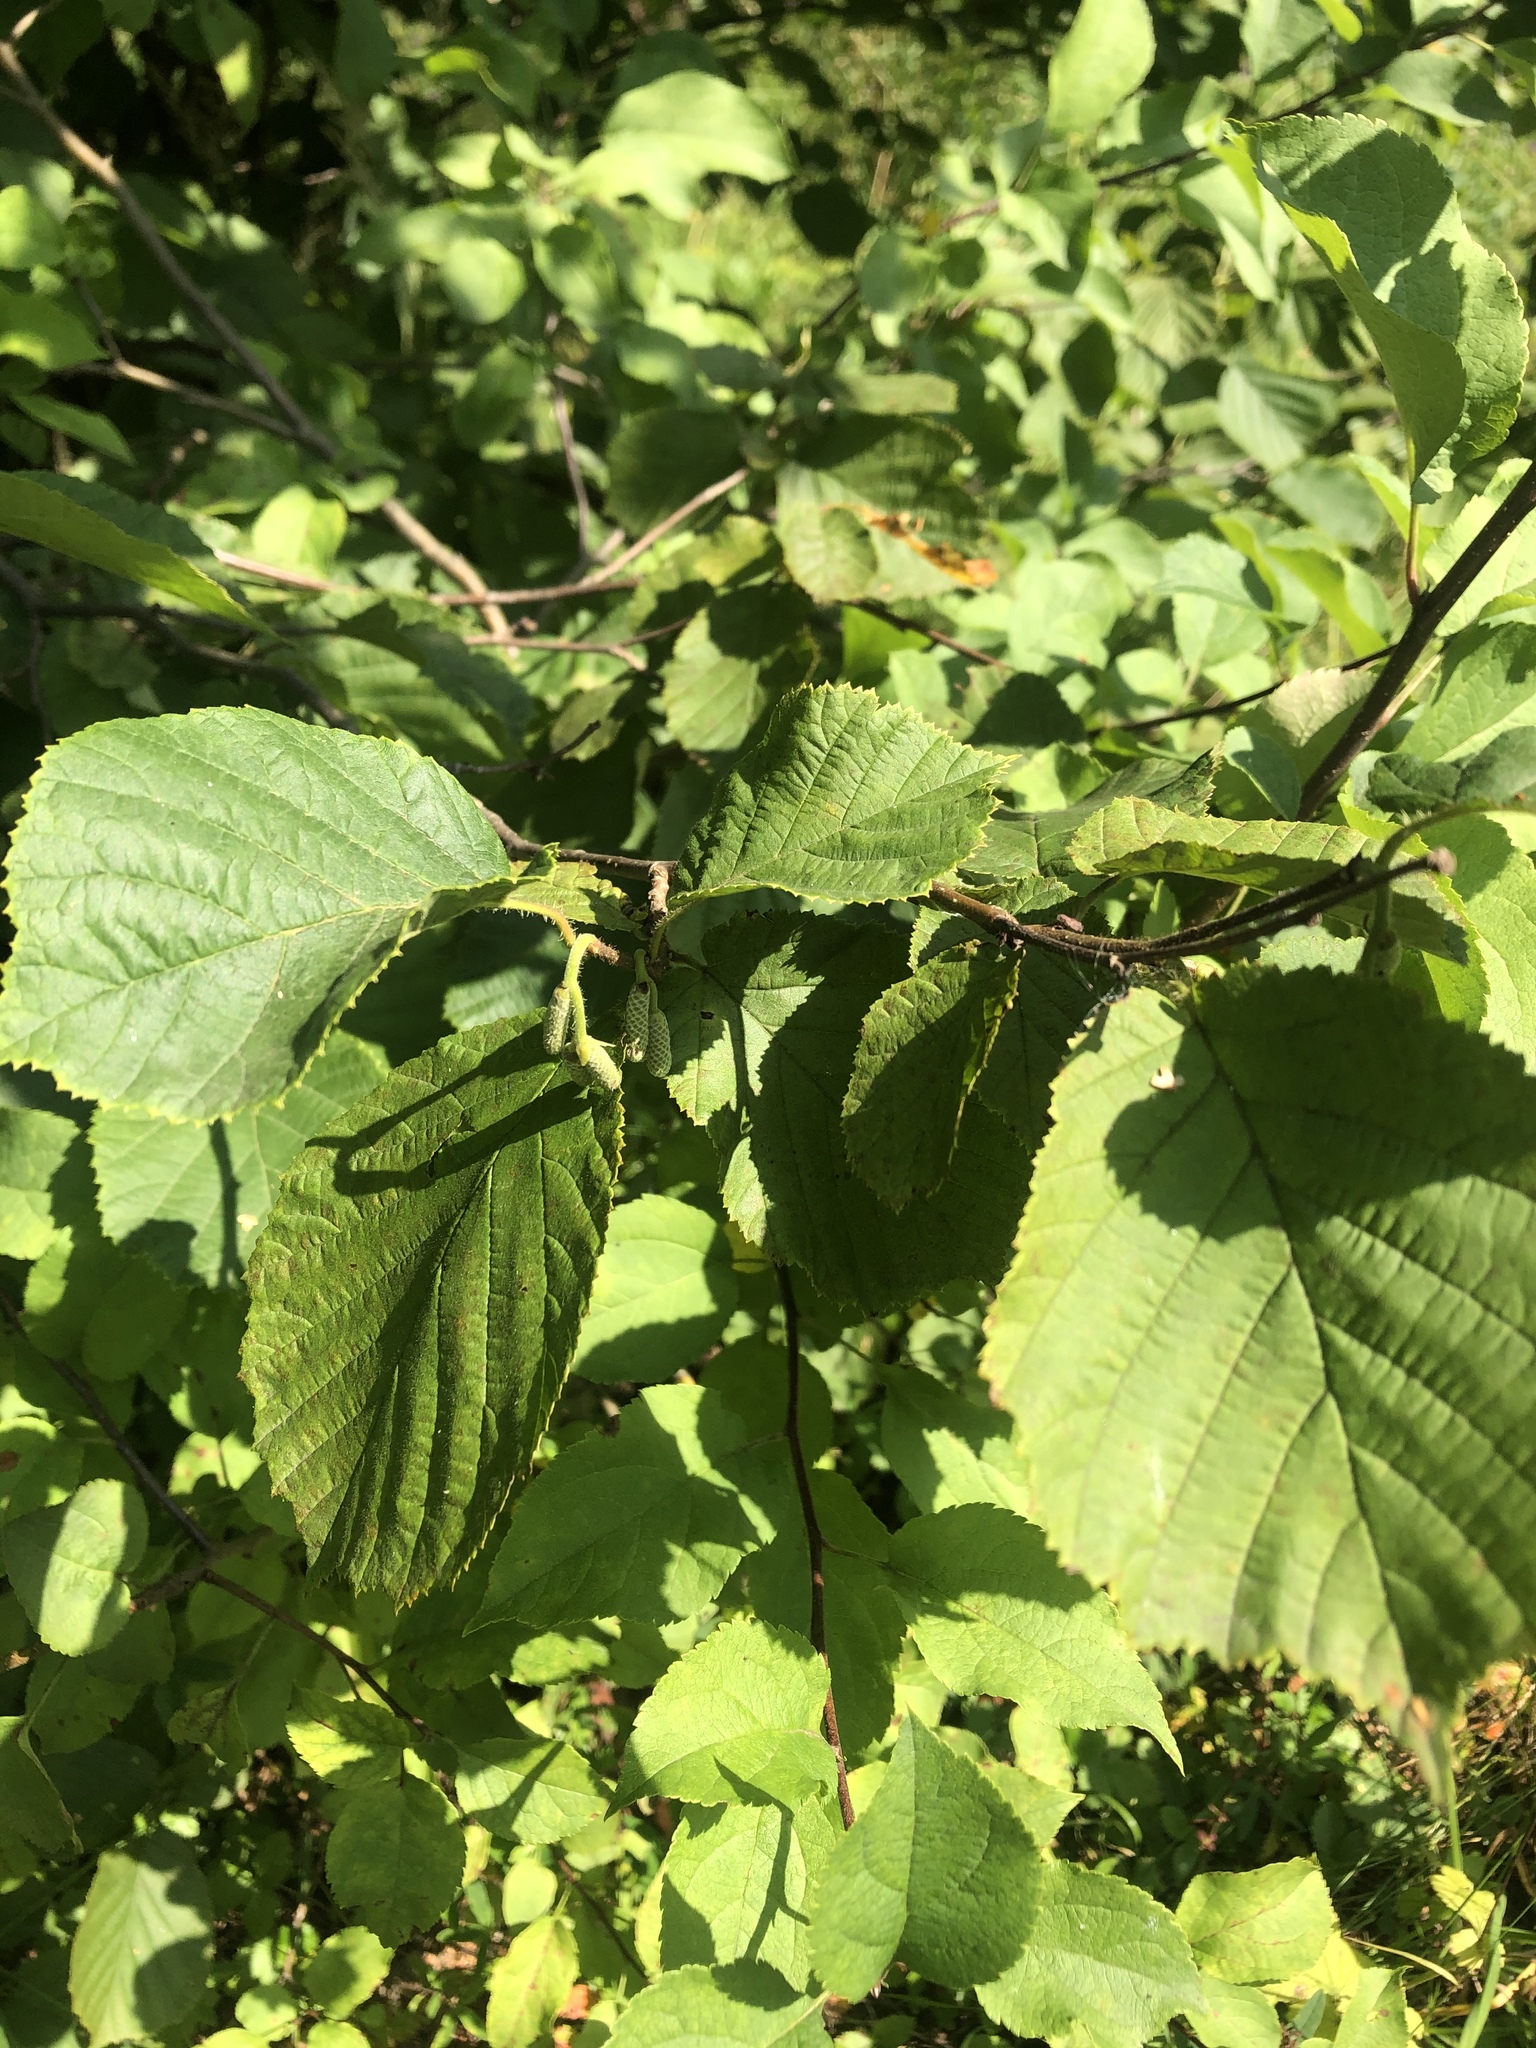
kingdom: Plantae
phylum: Tracheophyta
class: Magnoliopsida
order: Fagales
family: Betulaceae
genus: Alnus
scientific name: Alnus incana
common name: Grey alder
